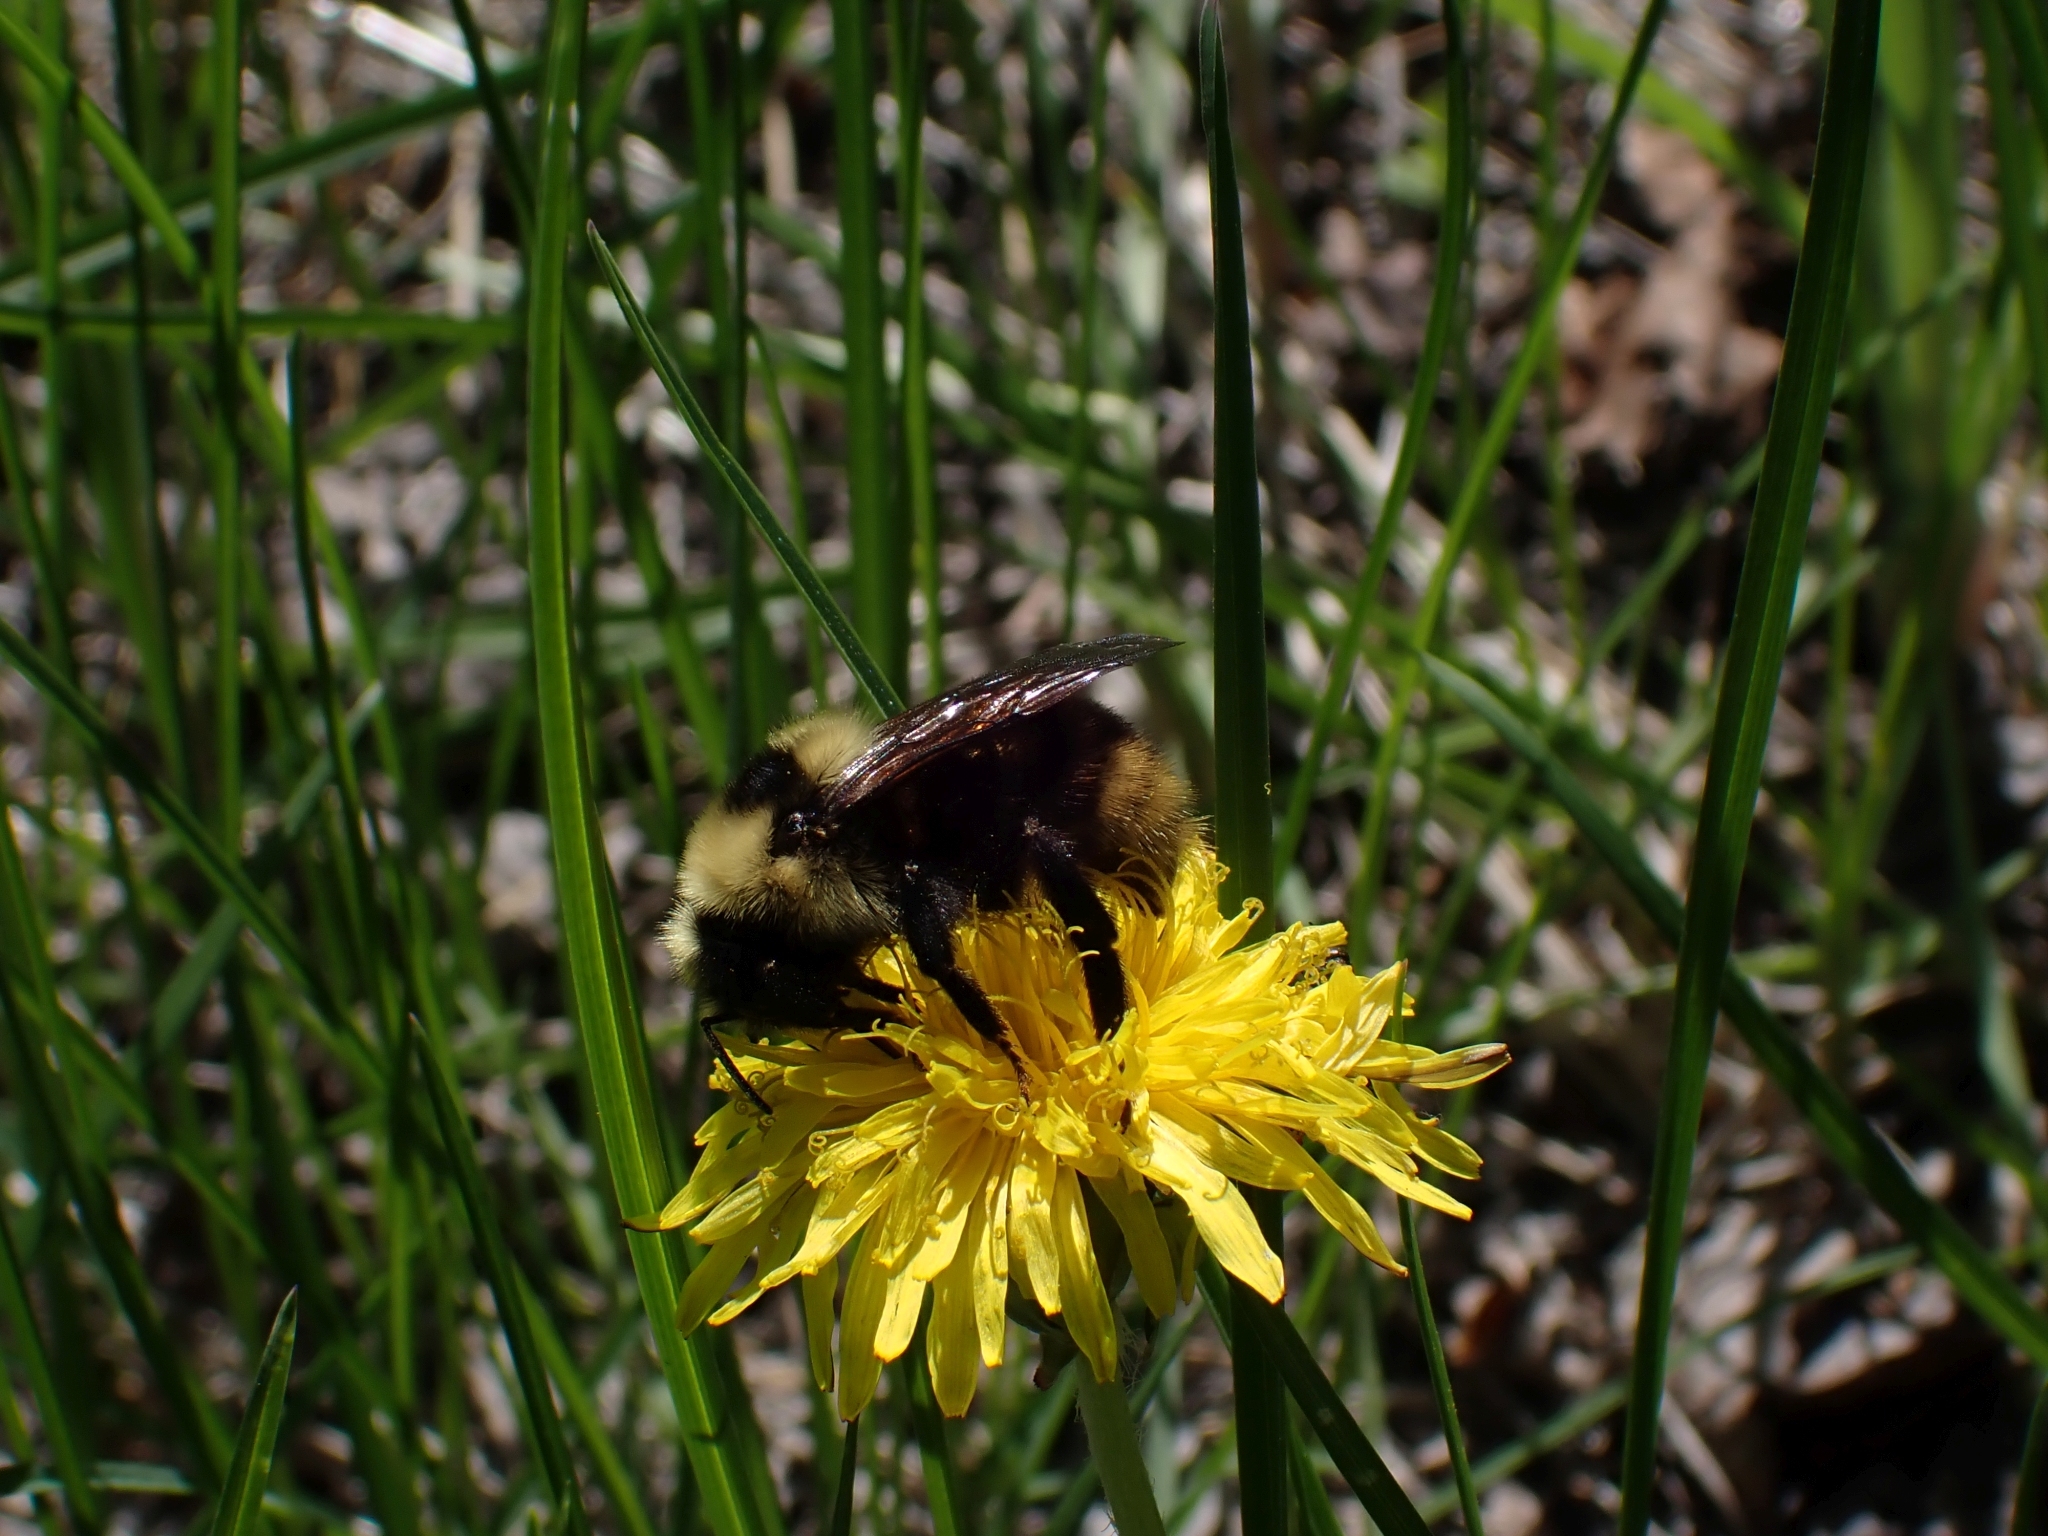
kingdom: Animalia
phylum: Arthropoda
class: Insecta
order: Hymenoptera
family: Apidae
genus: Bombus
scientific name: Bombus insularis
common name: Indiscriminate cuckoo bumble bee
